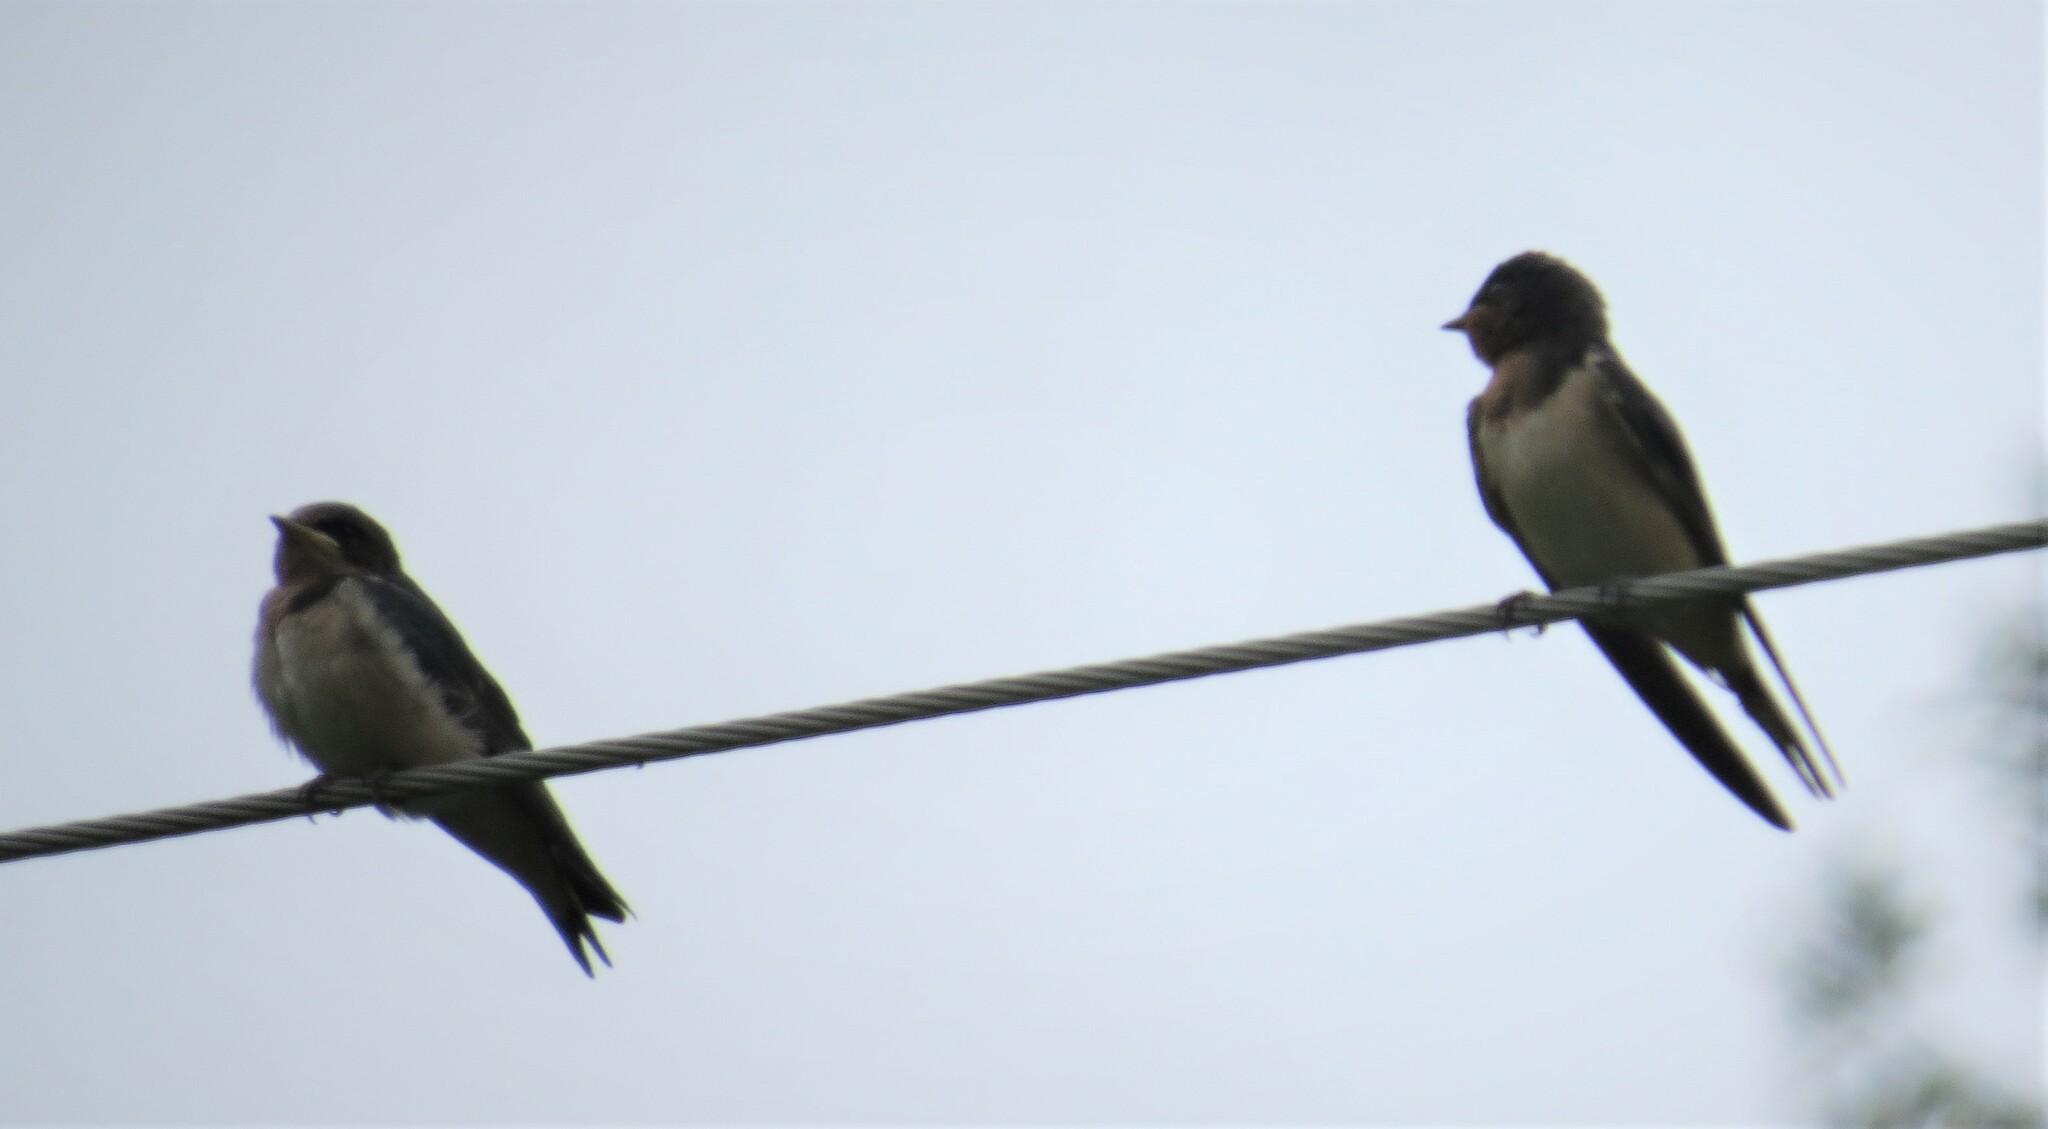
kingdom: Animalia
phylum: Chordata
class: Aves
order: Passeriformes
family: Hirundinidae
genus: Hirundo
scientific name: Hirundo rustica
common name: Barn swallow
